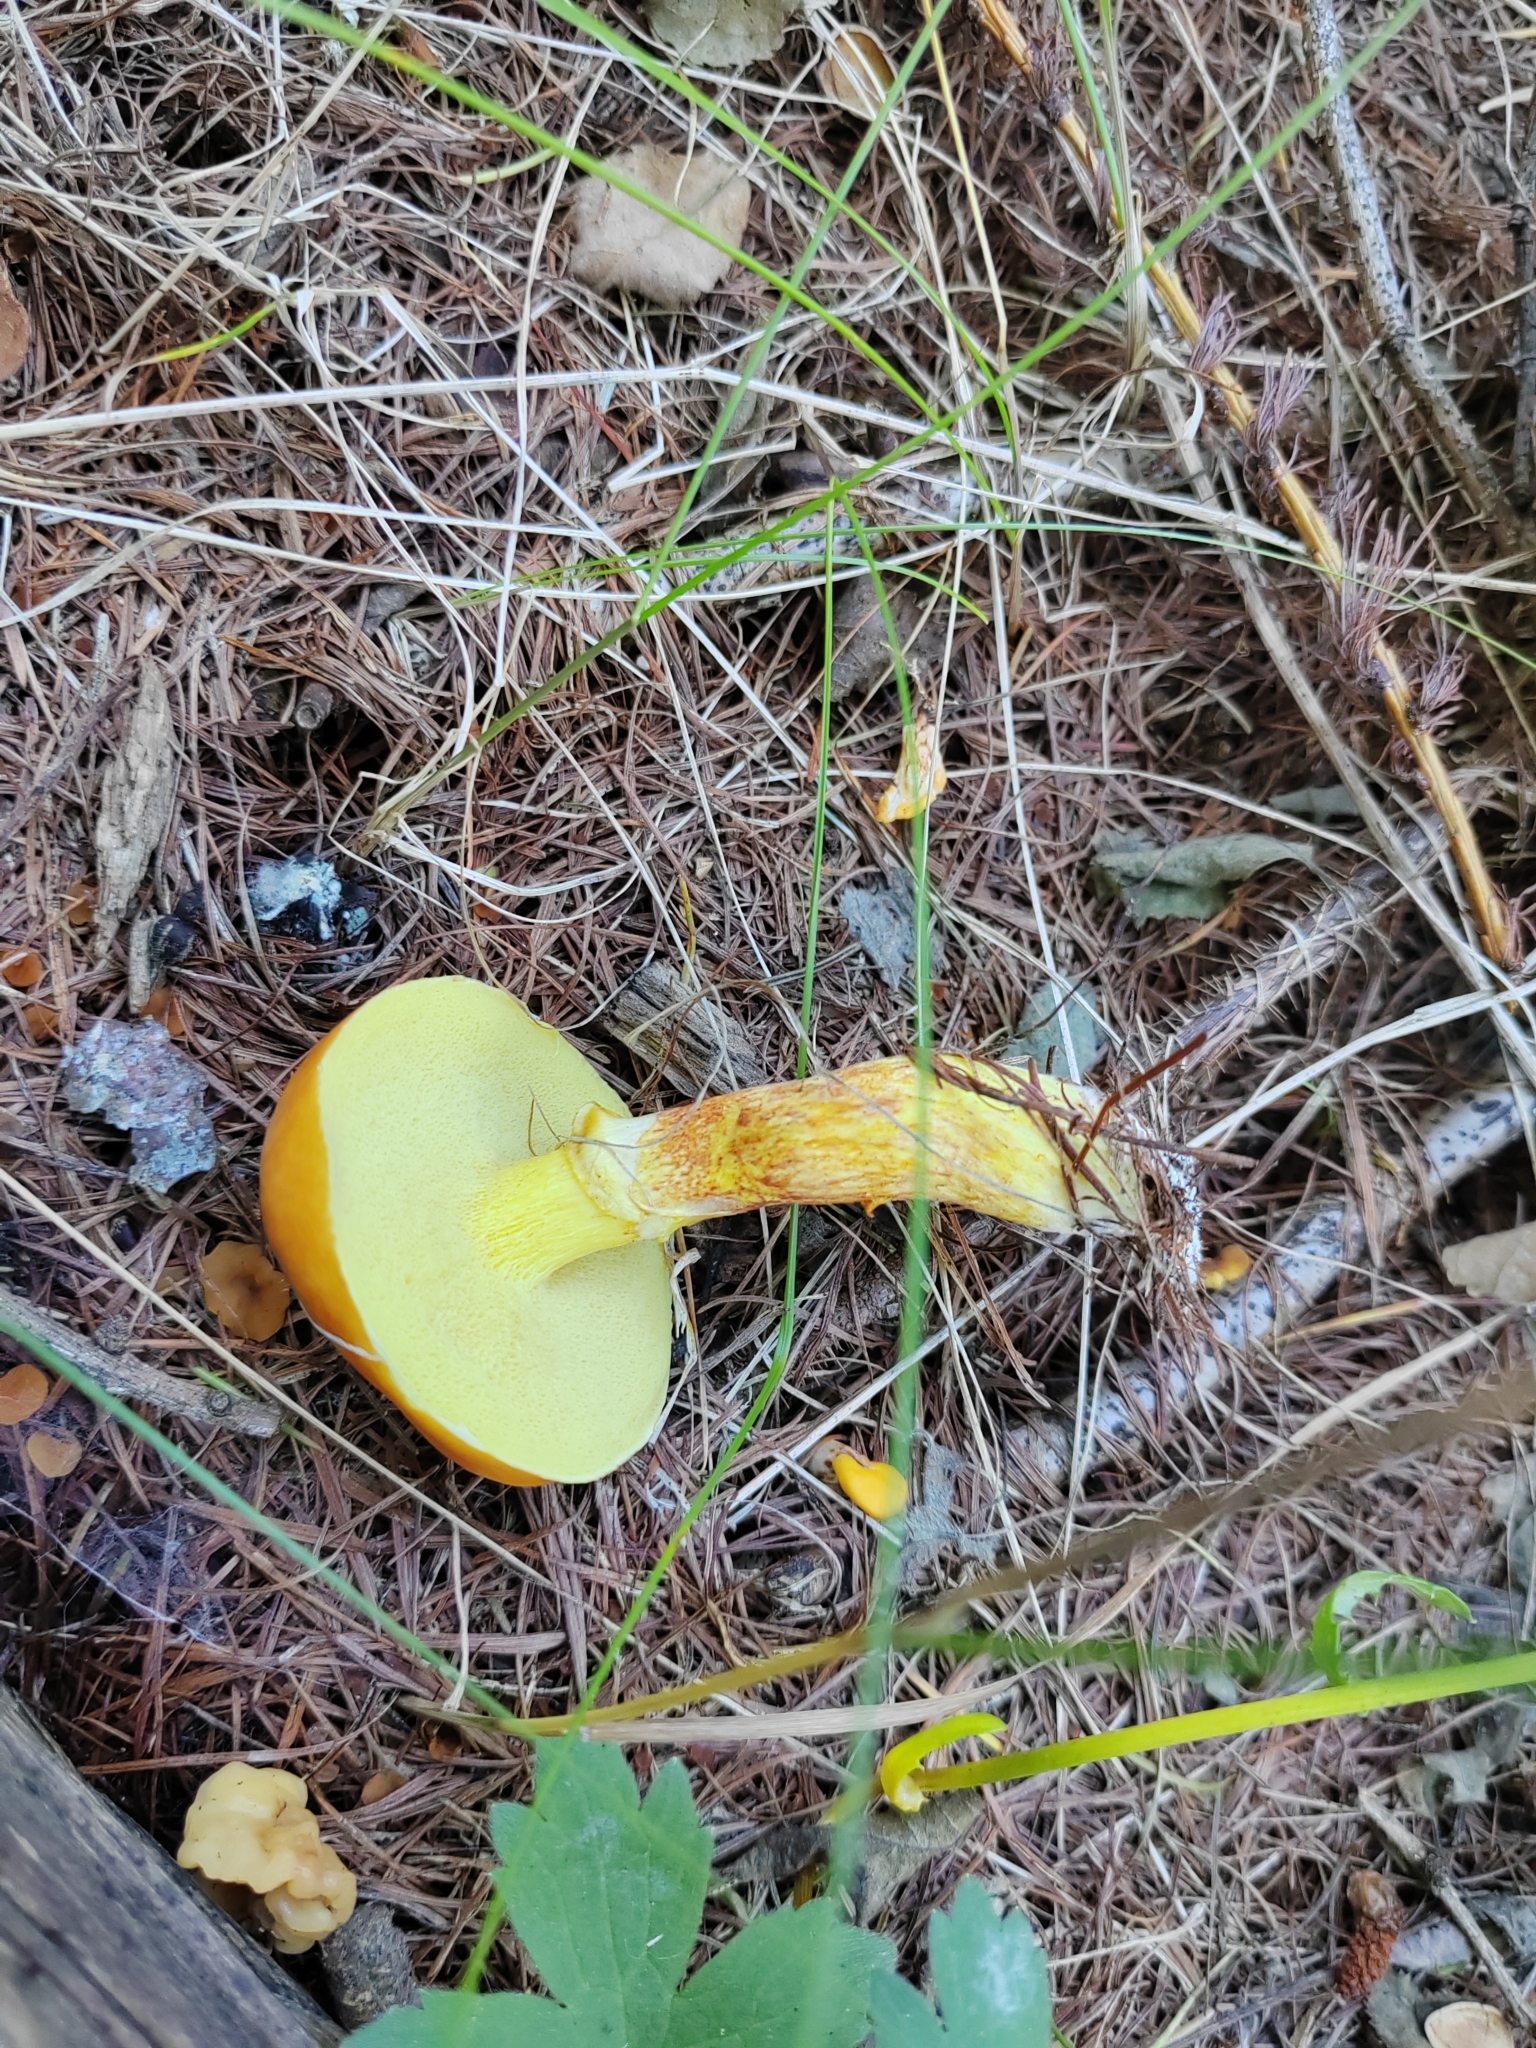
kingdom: Fungi
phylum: Basidiomycota
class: Agaricomycetes
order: Boletales
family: Suillaceae
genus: Suillus
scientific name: Suillus grevillei
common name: Larch bolete
